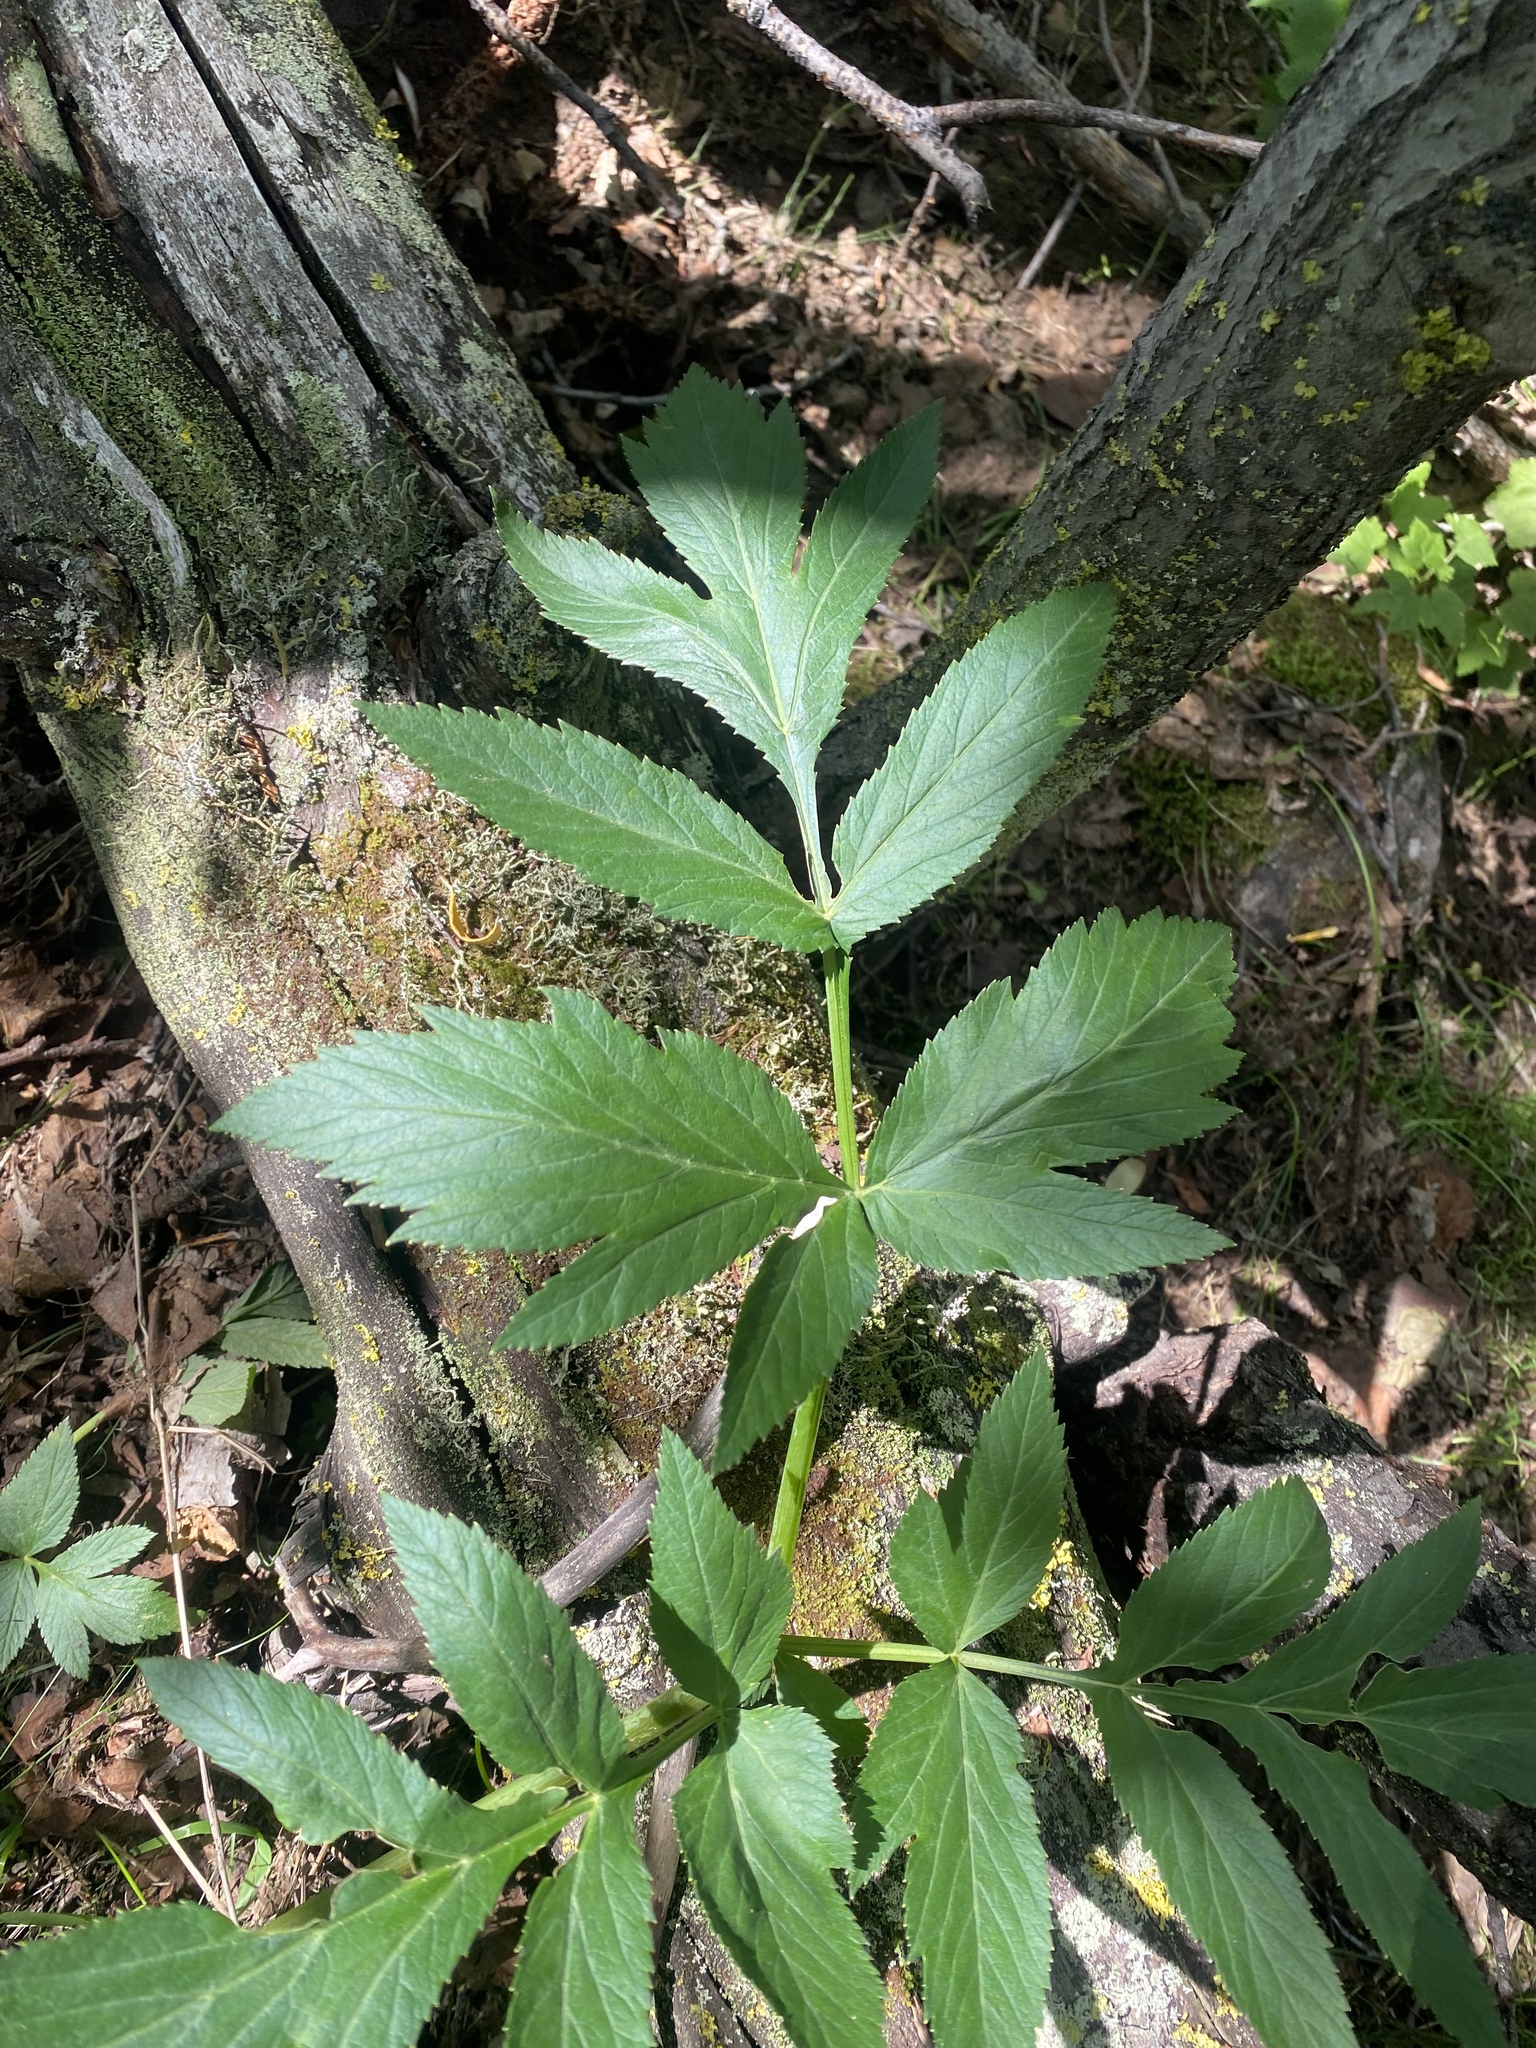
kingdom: Plantae
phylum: Tracheophyta
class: Magnoliopsida
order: Apiales
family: Apiaceae
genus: Angelica
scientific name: Angelica decurrens
